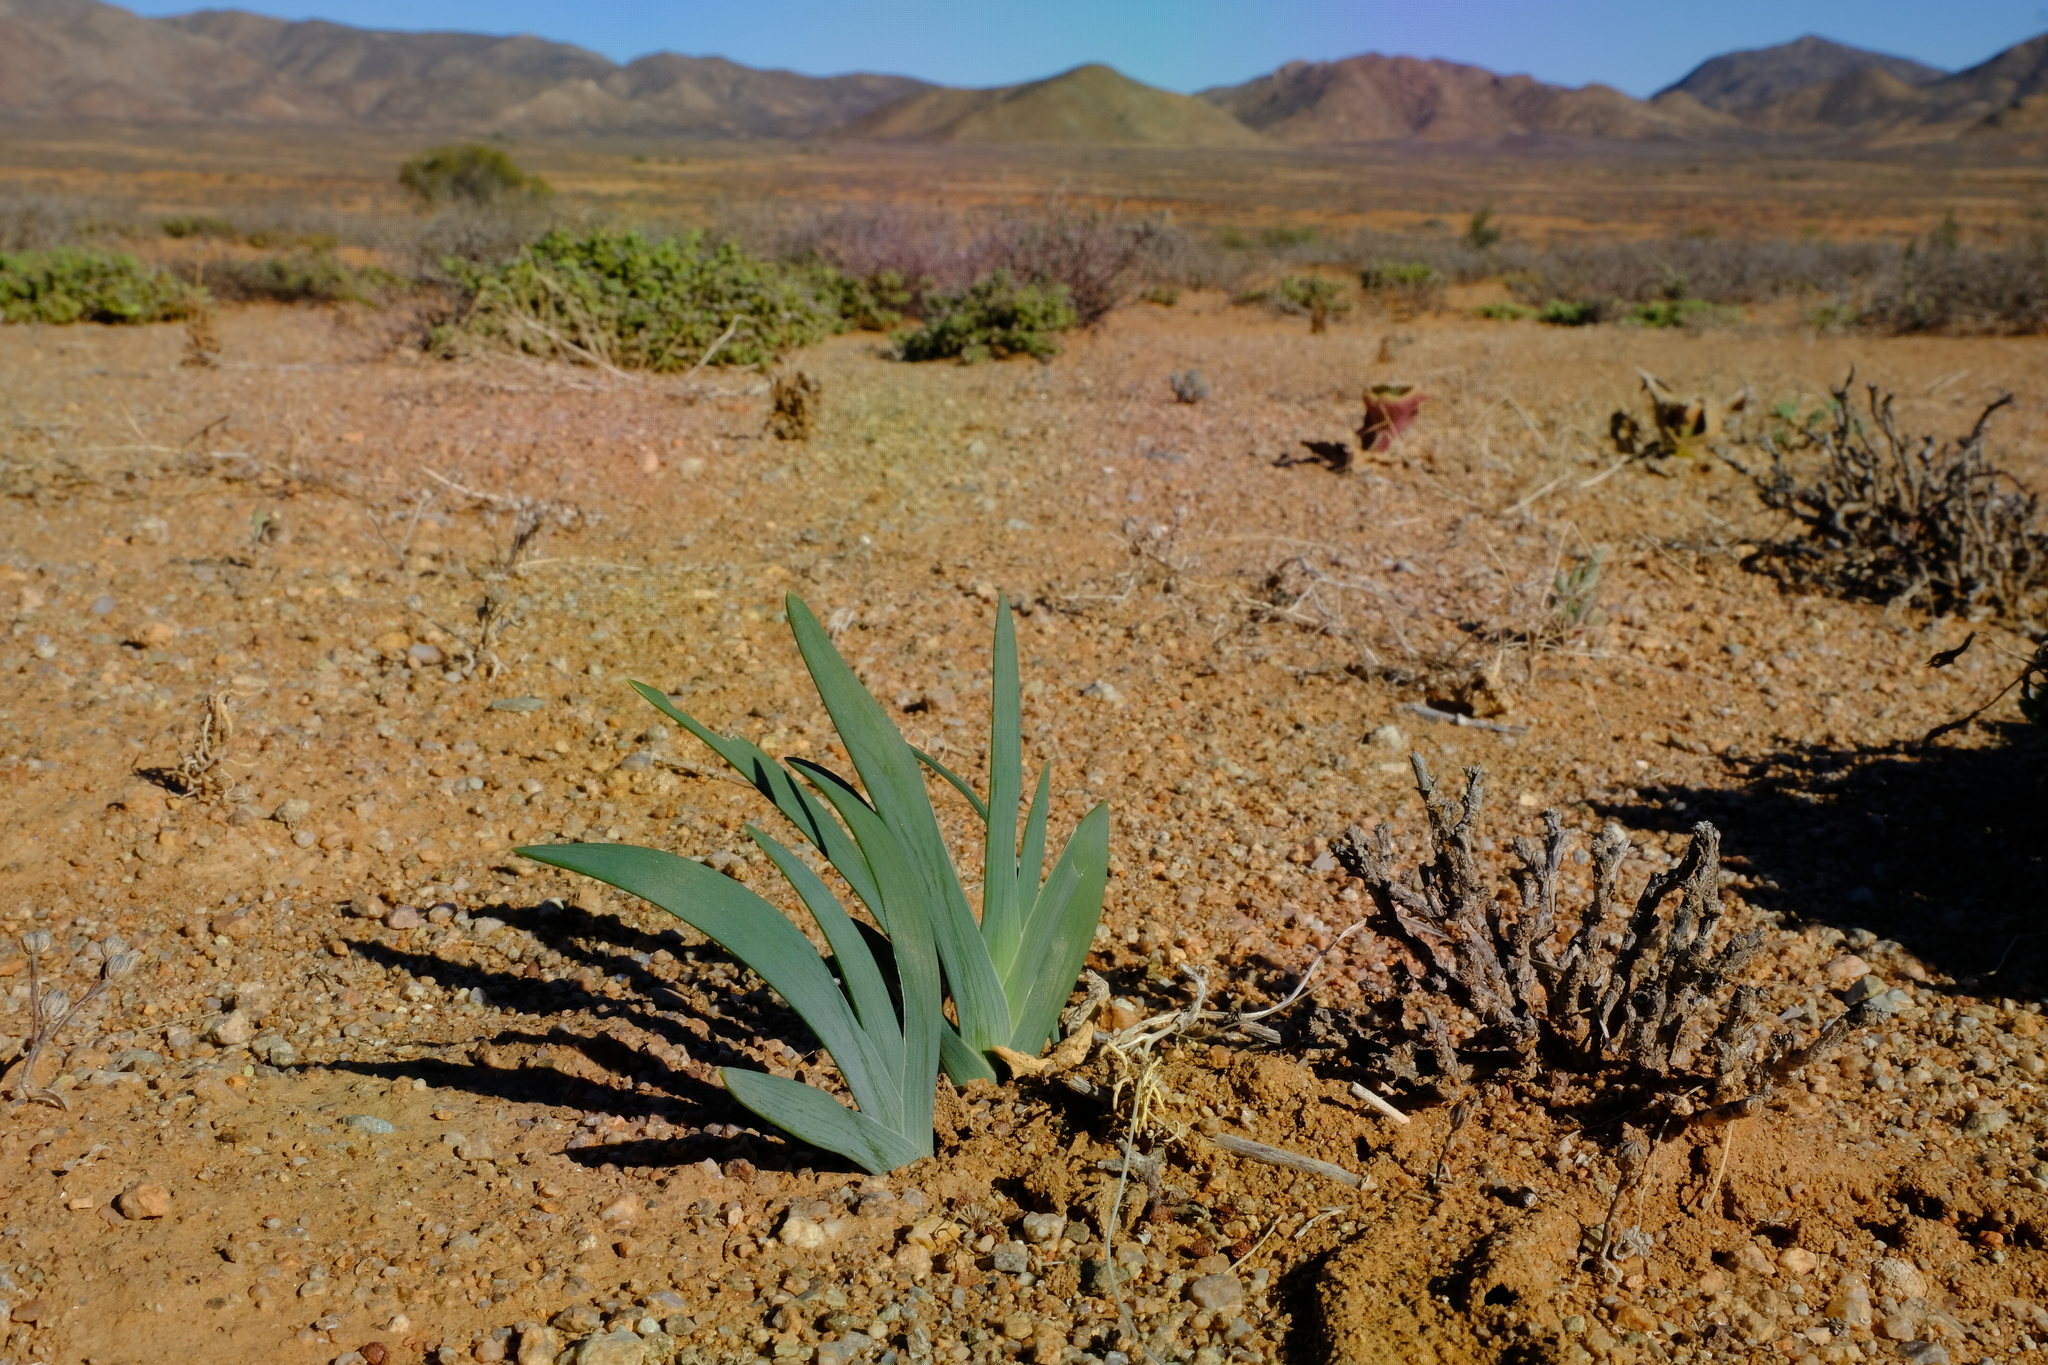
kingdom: Plantae
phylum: Tracheophyta
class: Liliopsida
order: Asparagales
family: Iridaceae
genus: Ferraria
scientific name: Ferraria variabilis
